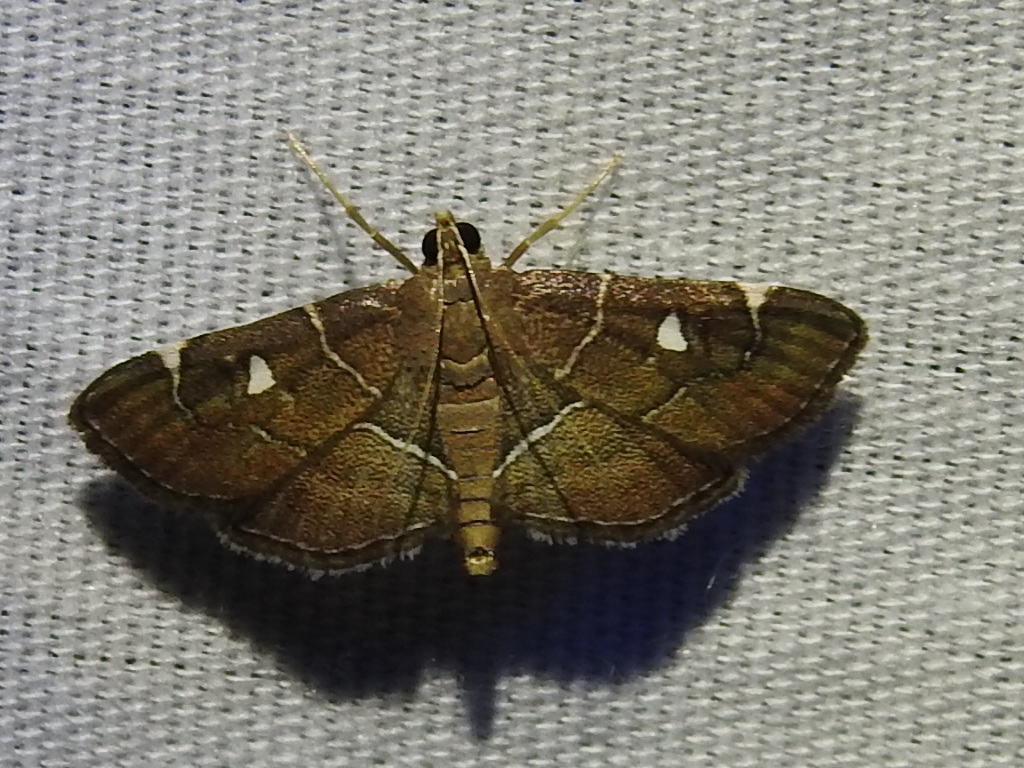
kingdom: Animalia
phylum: Arthropoda
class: Insecta
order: Lepidoptera
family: Crambidae
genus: Lamprosema
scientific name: Lamprosema victoriae
